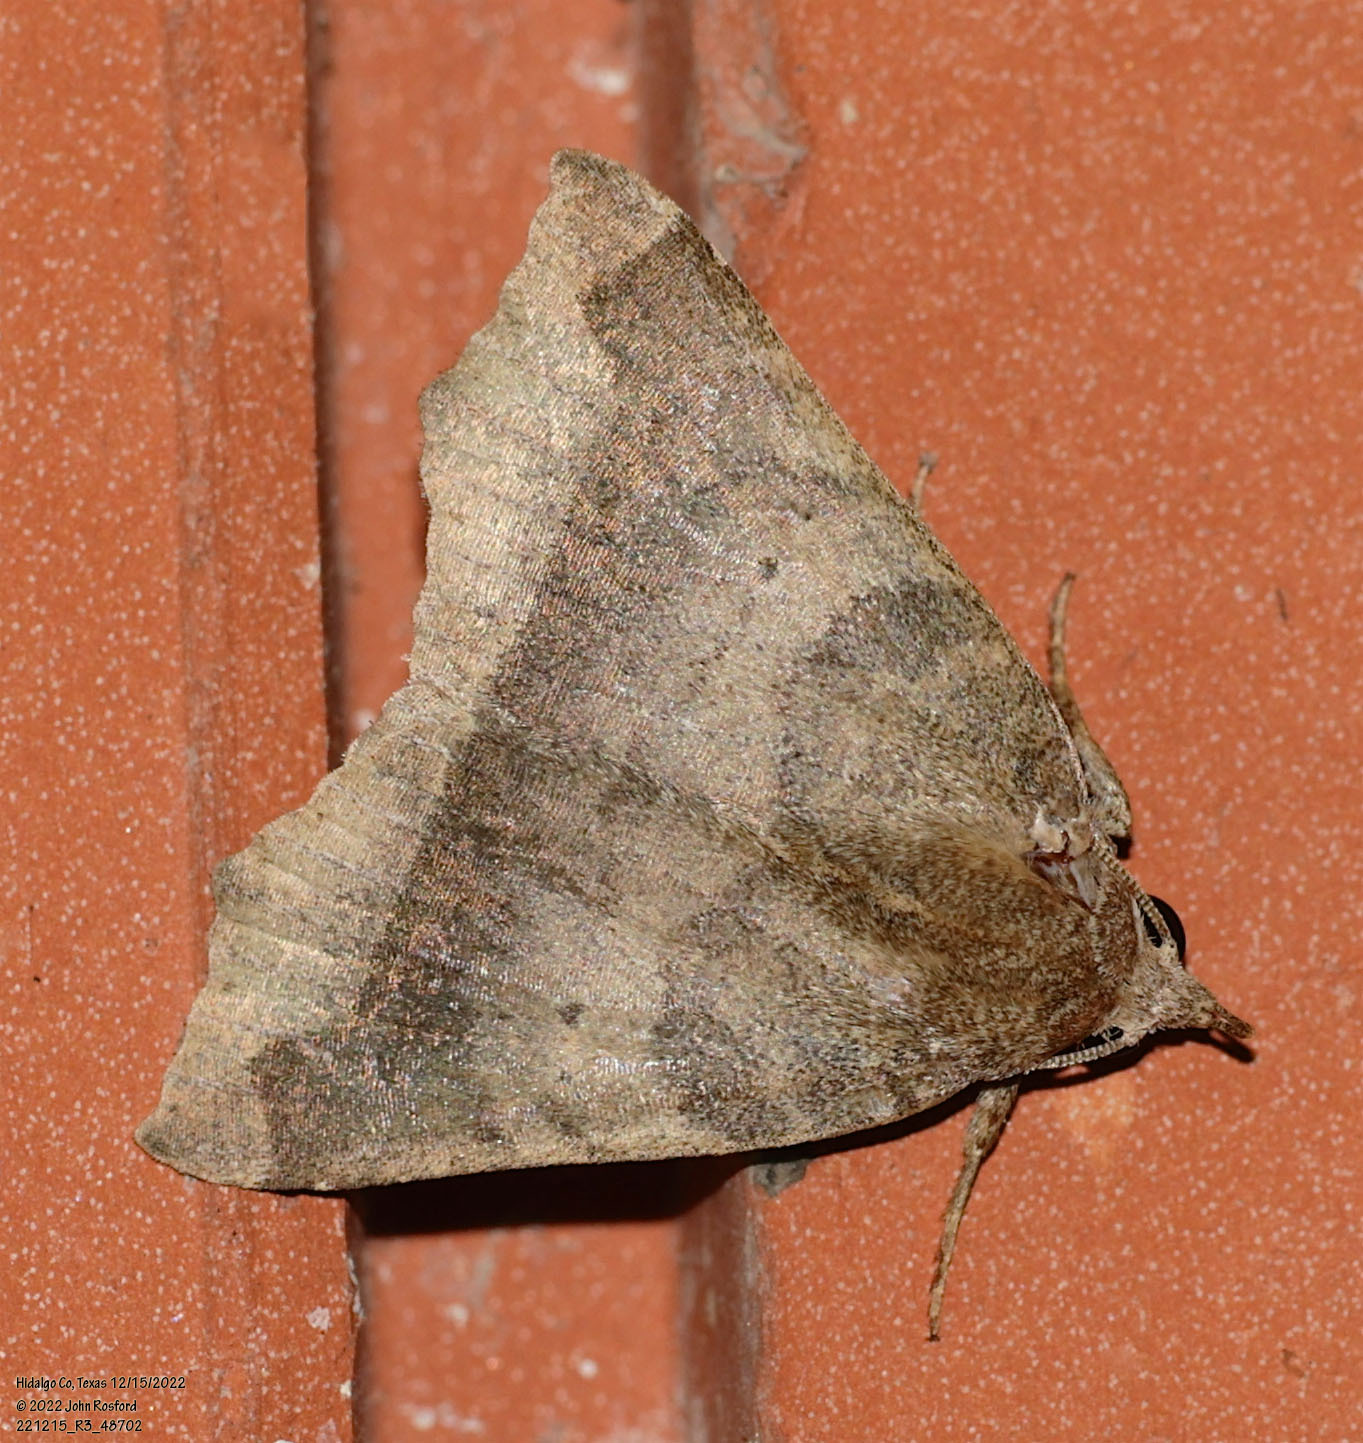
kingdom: Animalia
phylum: Arthropoda
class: Insecta
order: Lepidoptera
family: Erebidae
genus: Bendisodes
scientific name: Bendisodes aeolia
